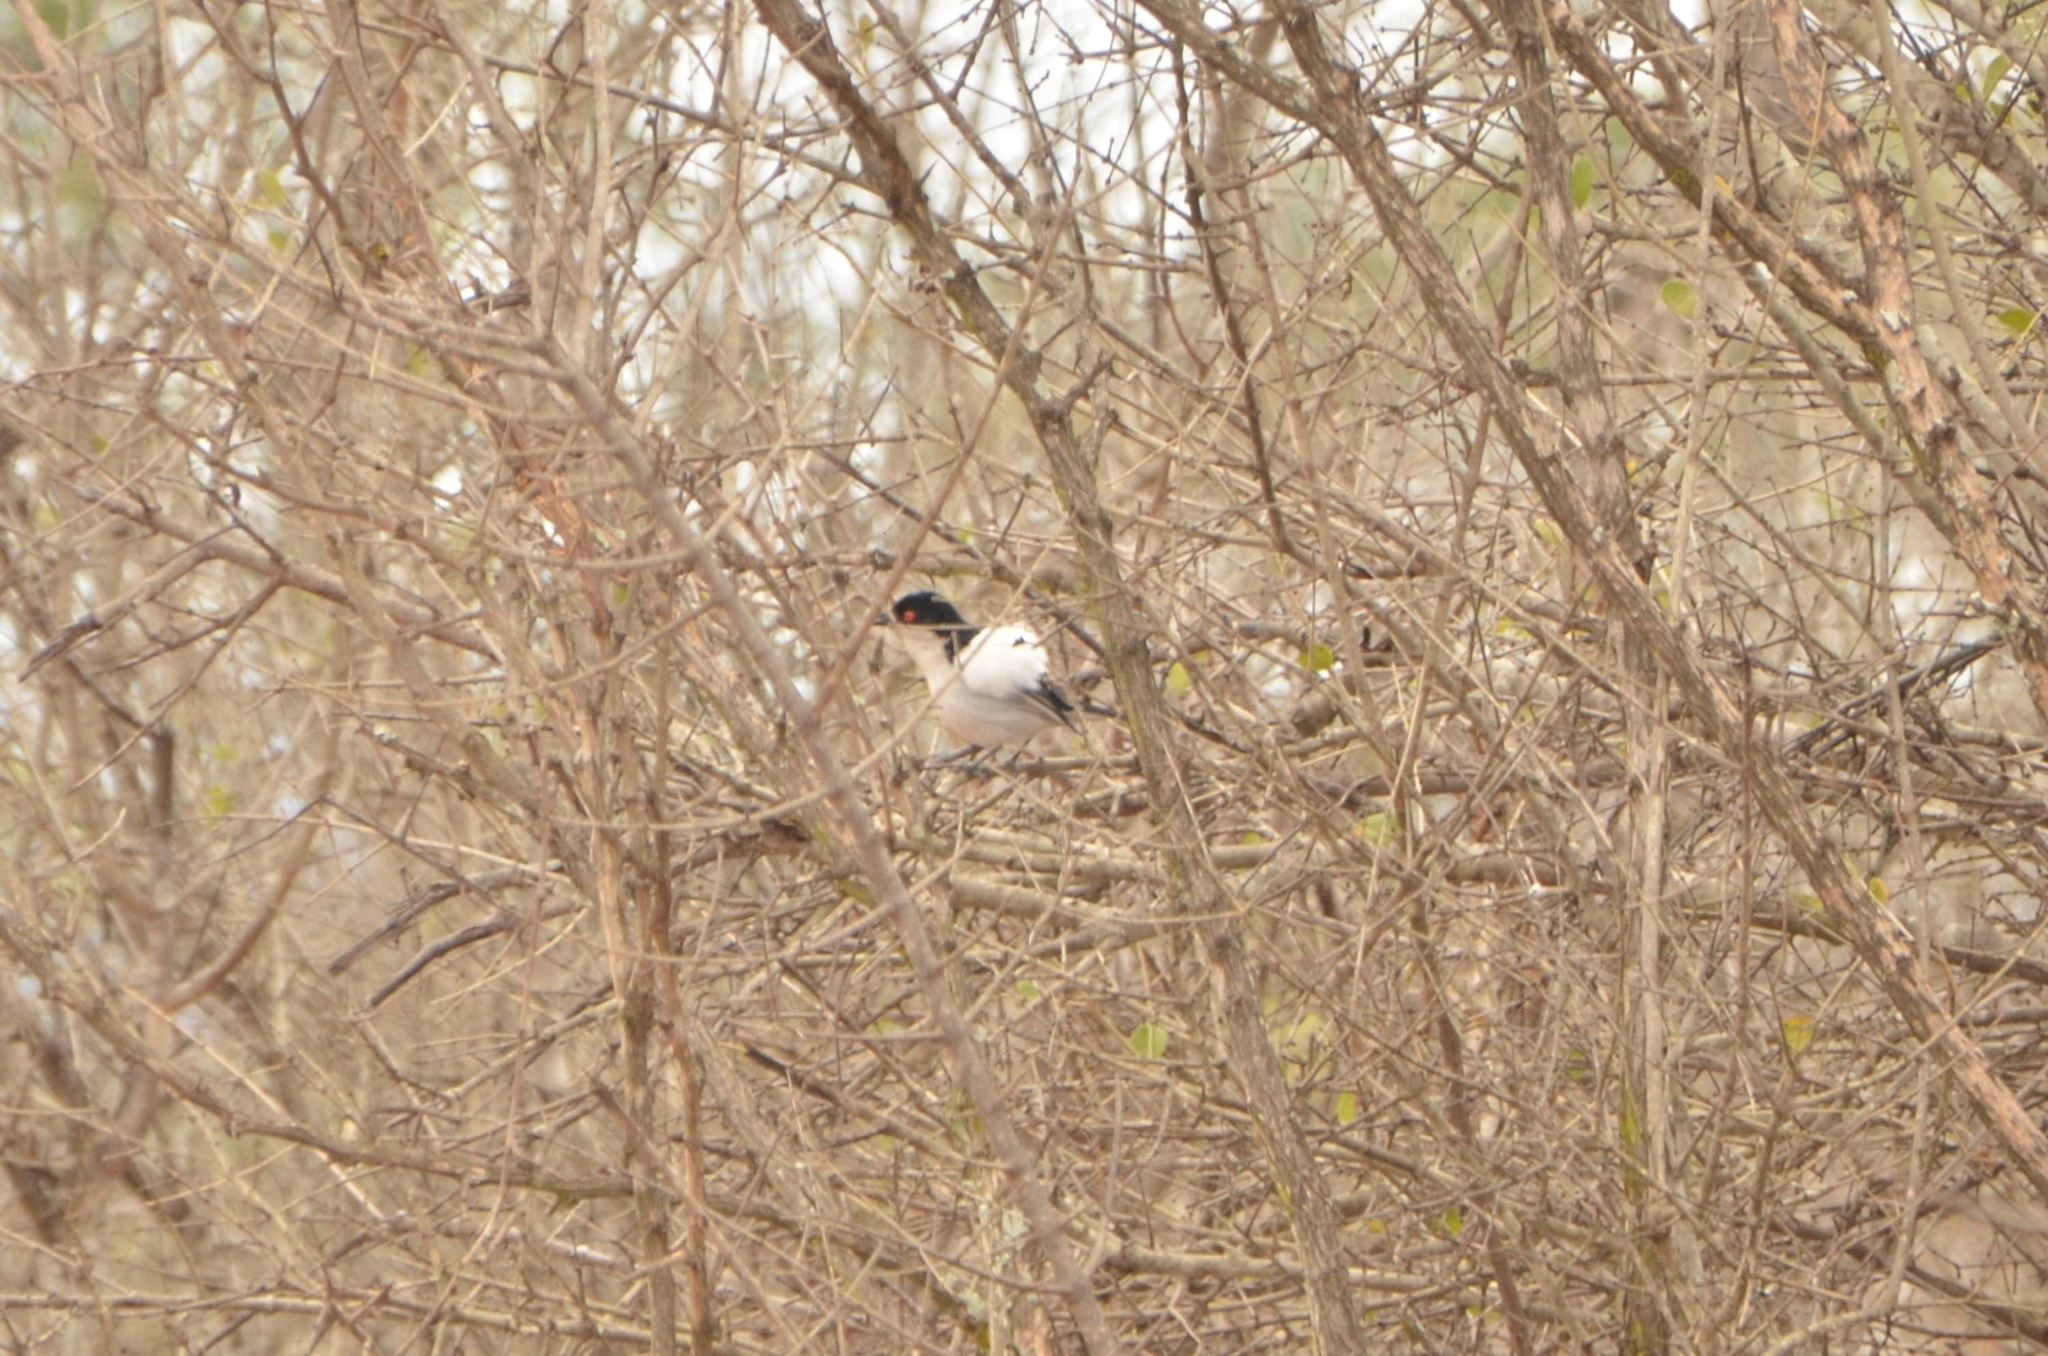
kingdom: Animalia
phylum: Chordata
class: Aves
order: Passeriformes
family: Malaconotidae
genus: Dryoscopus
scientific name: Dryoscopus cubla
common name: Black-backed puffback
